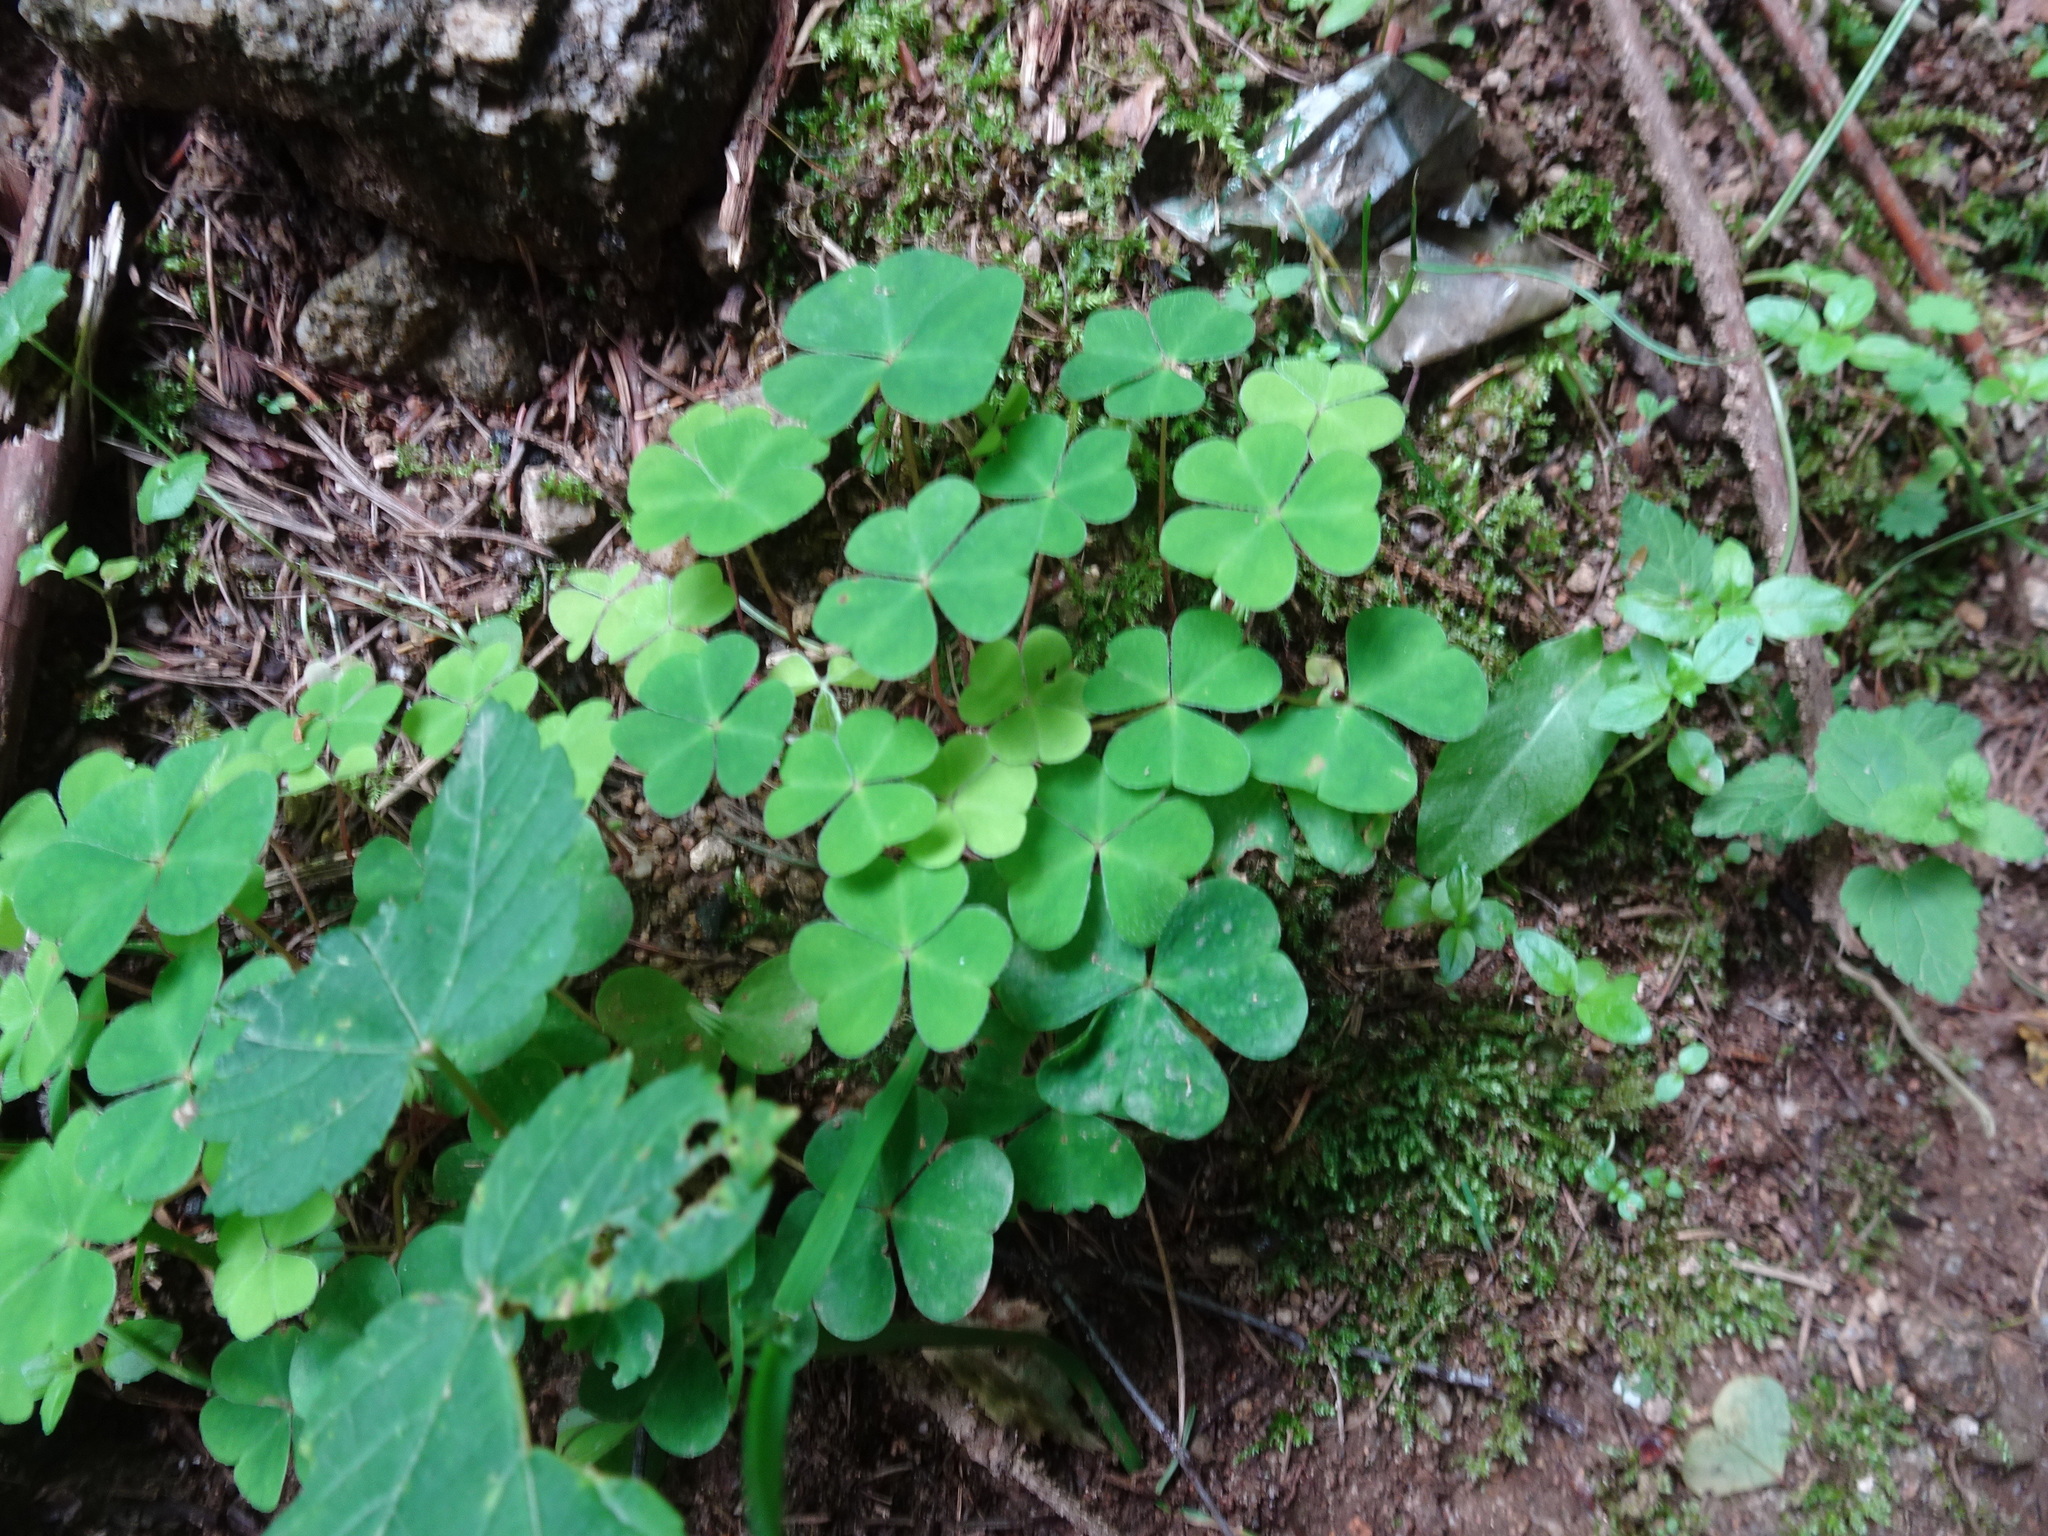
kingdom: Plantae
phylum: Tracheophyta
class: Magnoliopsida
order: Oxalidales
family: Oxalidaceae
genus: Oxalis
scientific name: Oxalis acetosella
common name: Wood-sorrel
